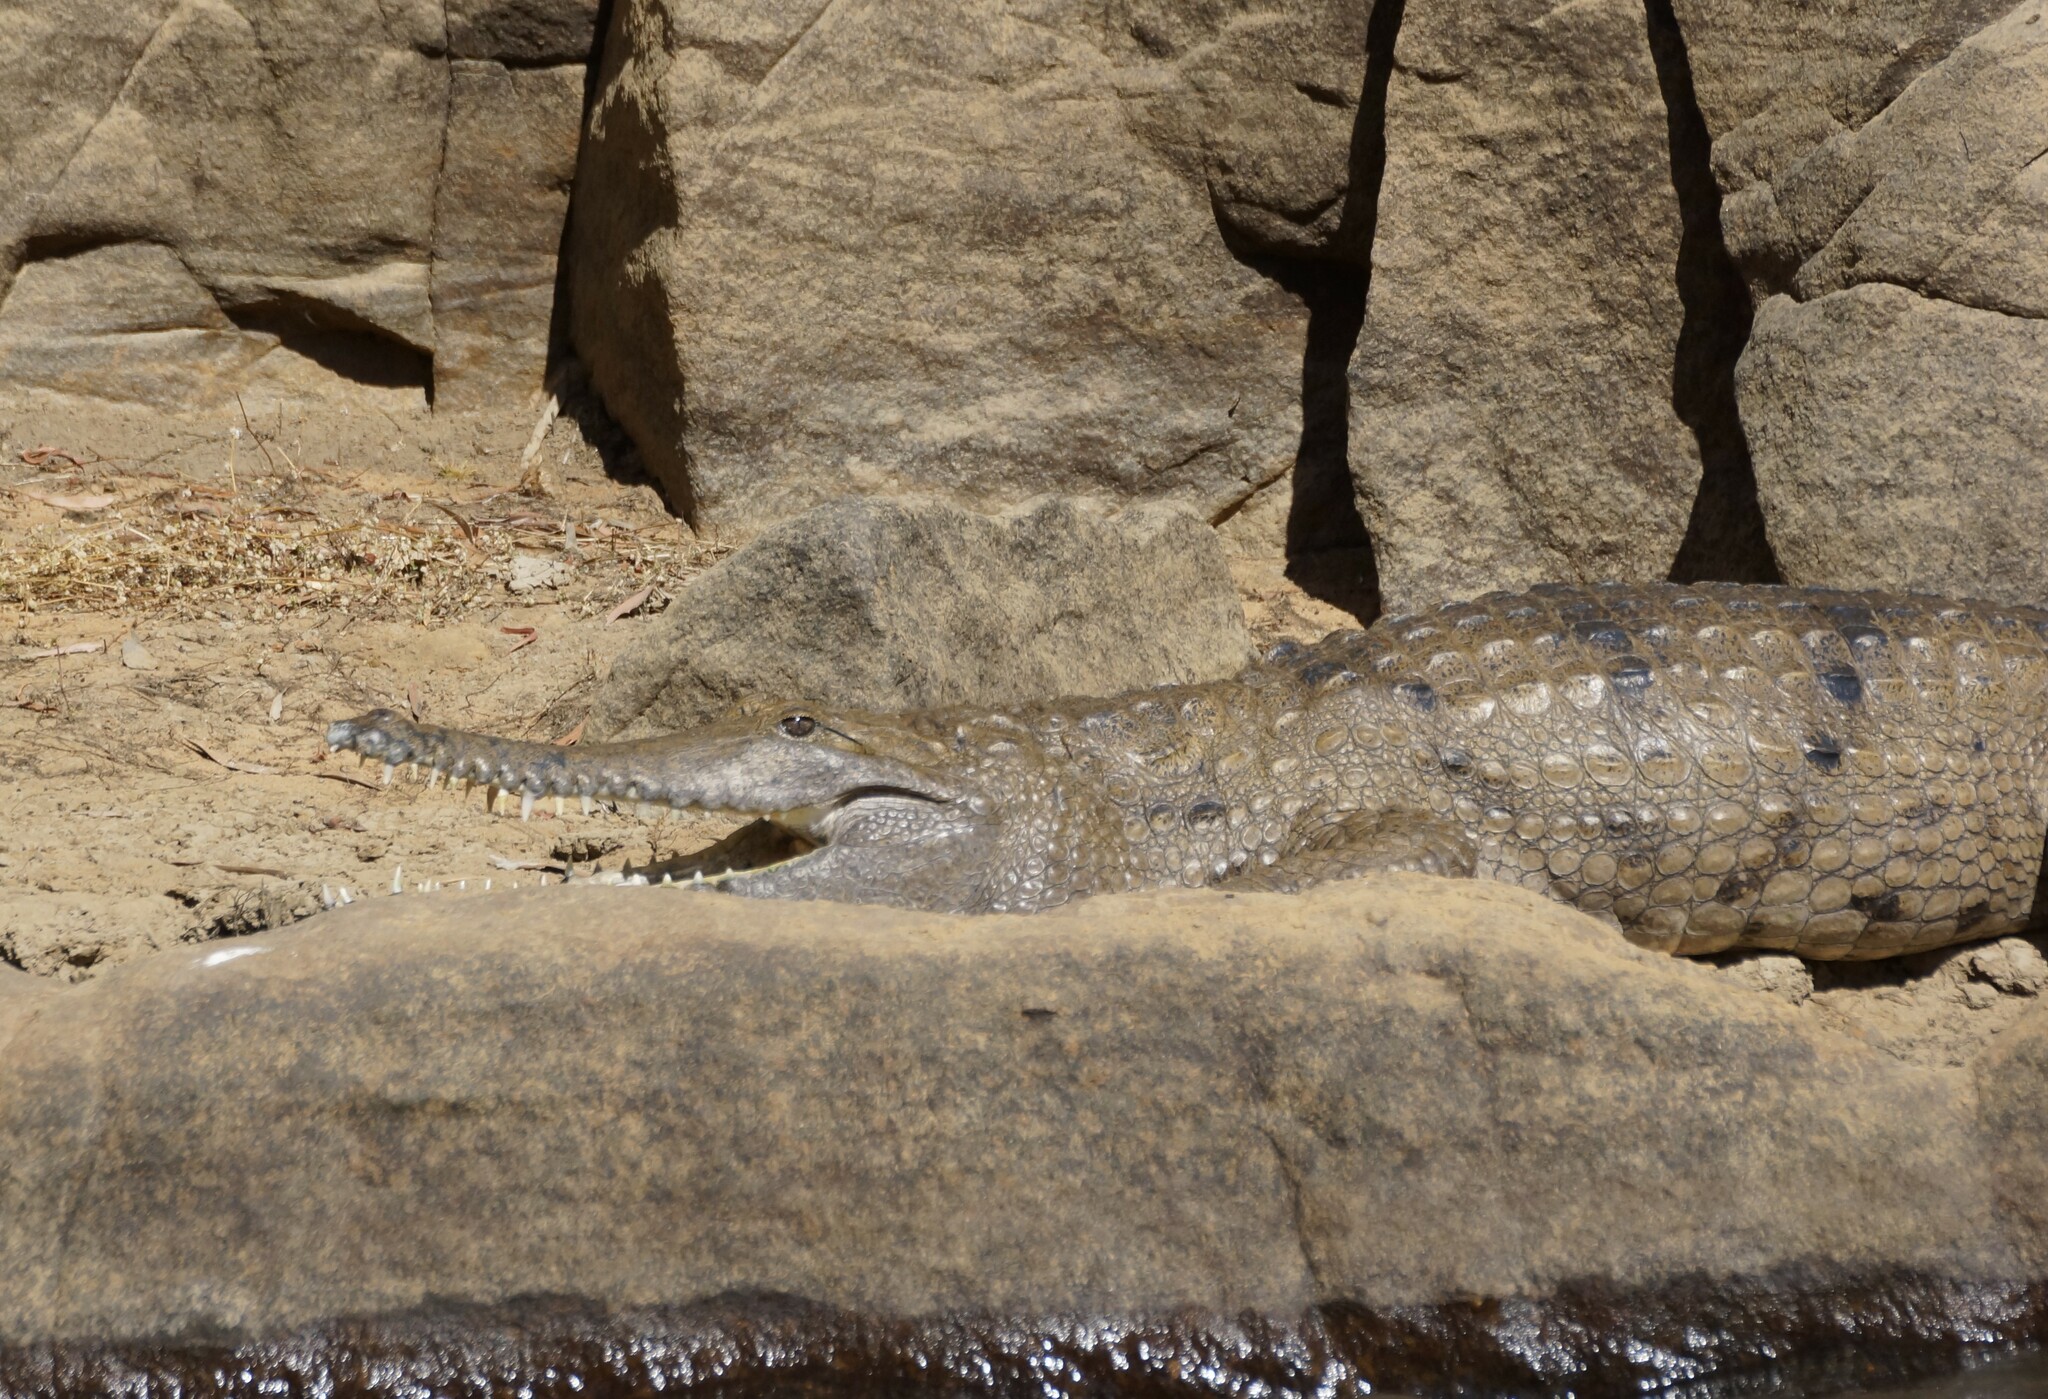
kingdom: Animalia
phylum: Chordata
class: Crocodylia
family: Crocodylidae
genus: Crocodylus
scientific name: Crocodylus johnsoni
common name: Freshwater crocodile
